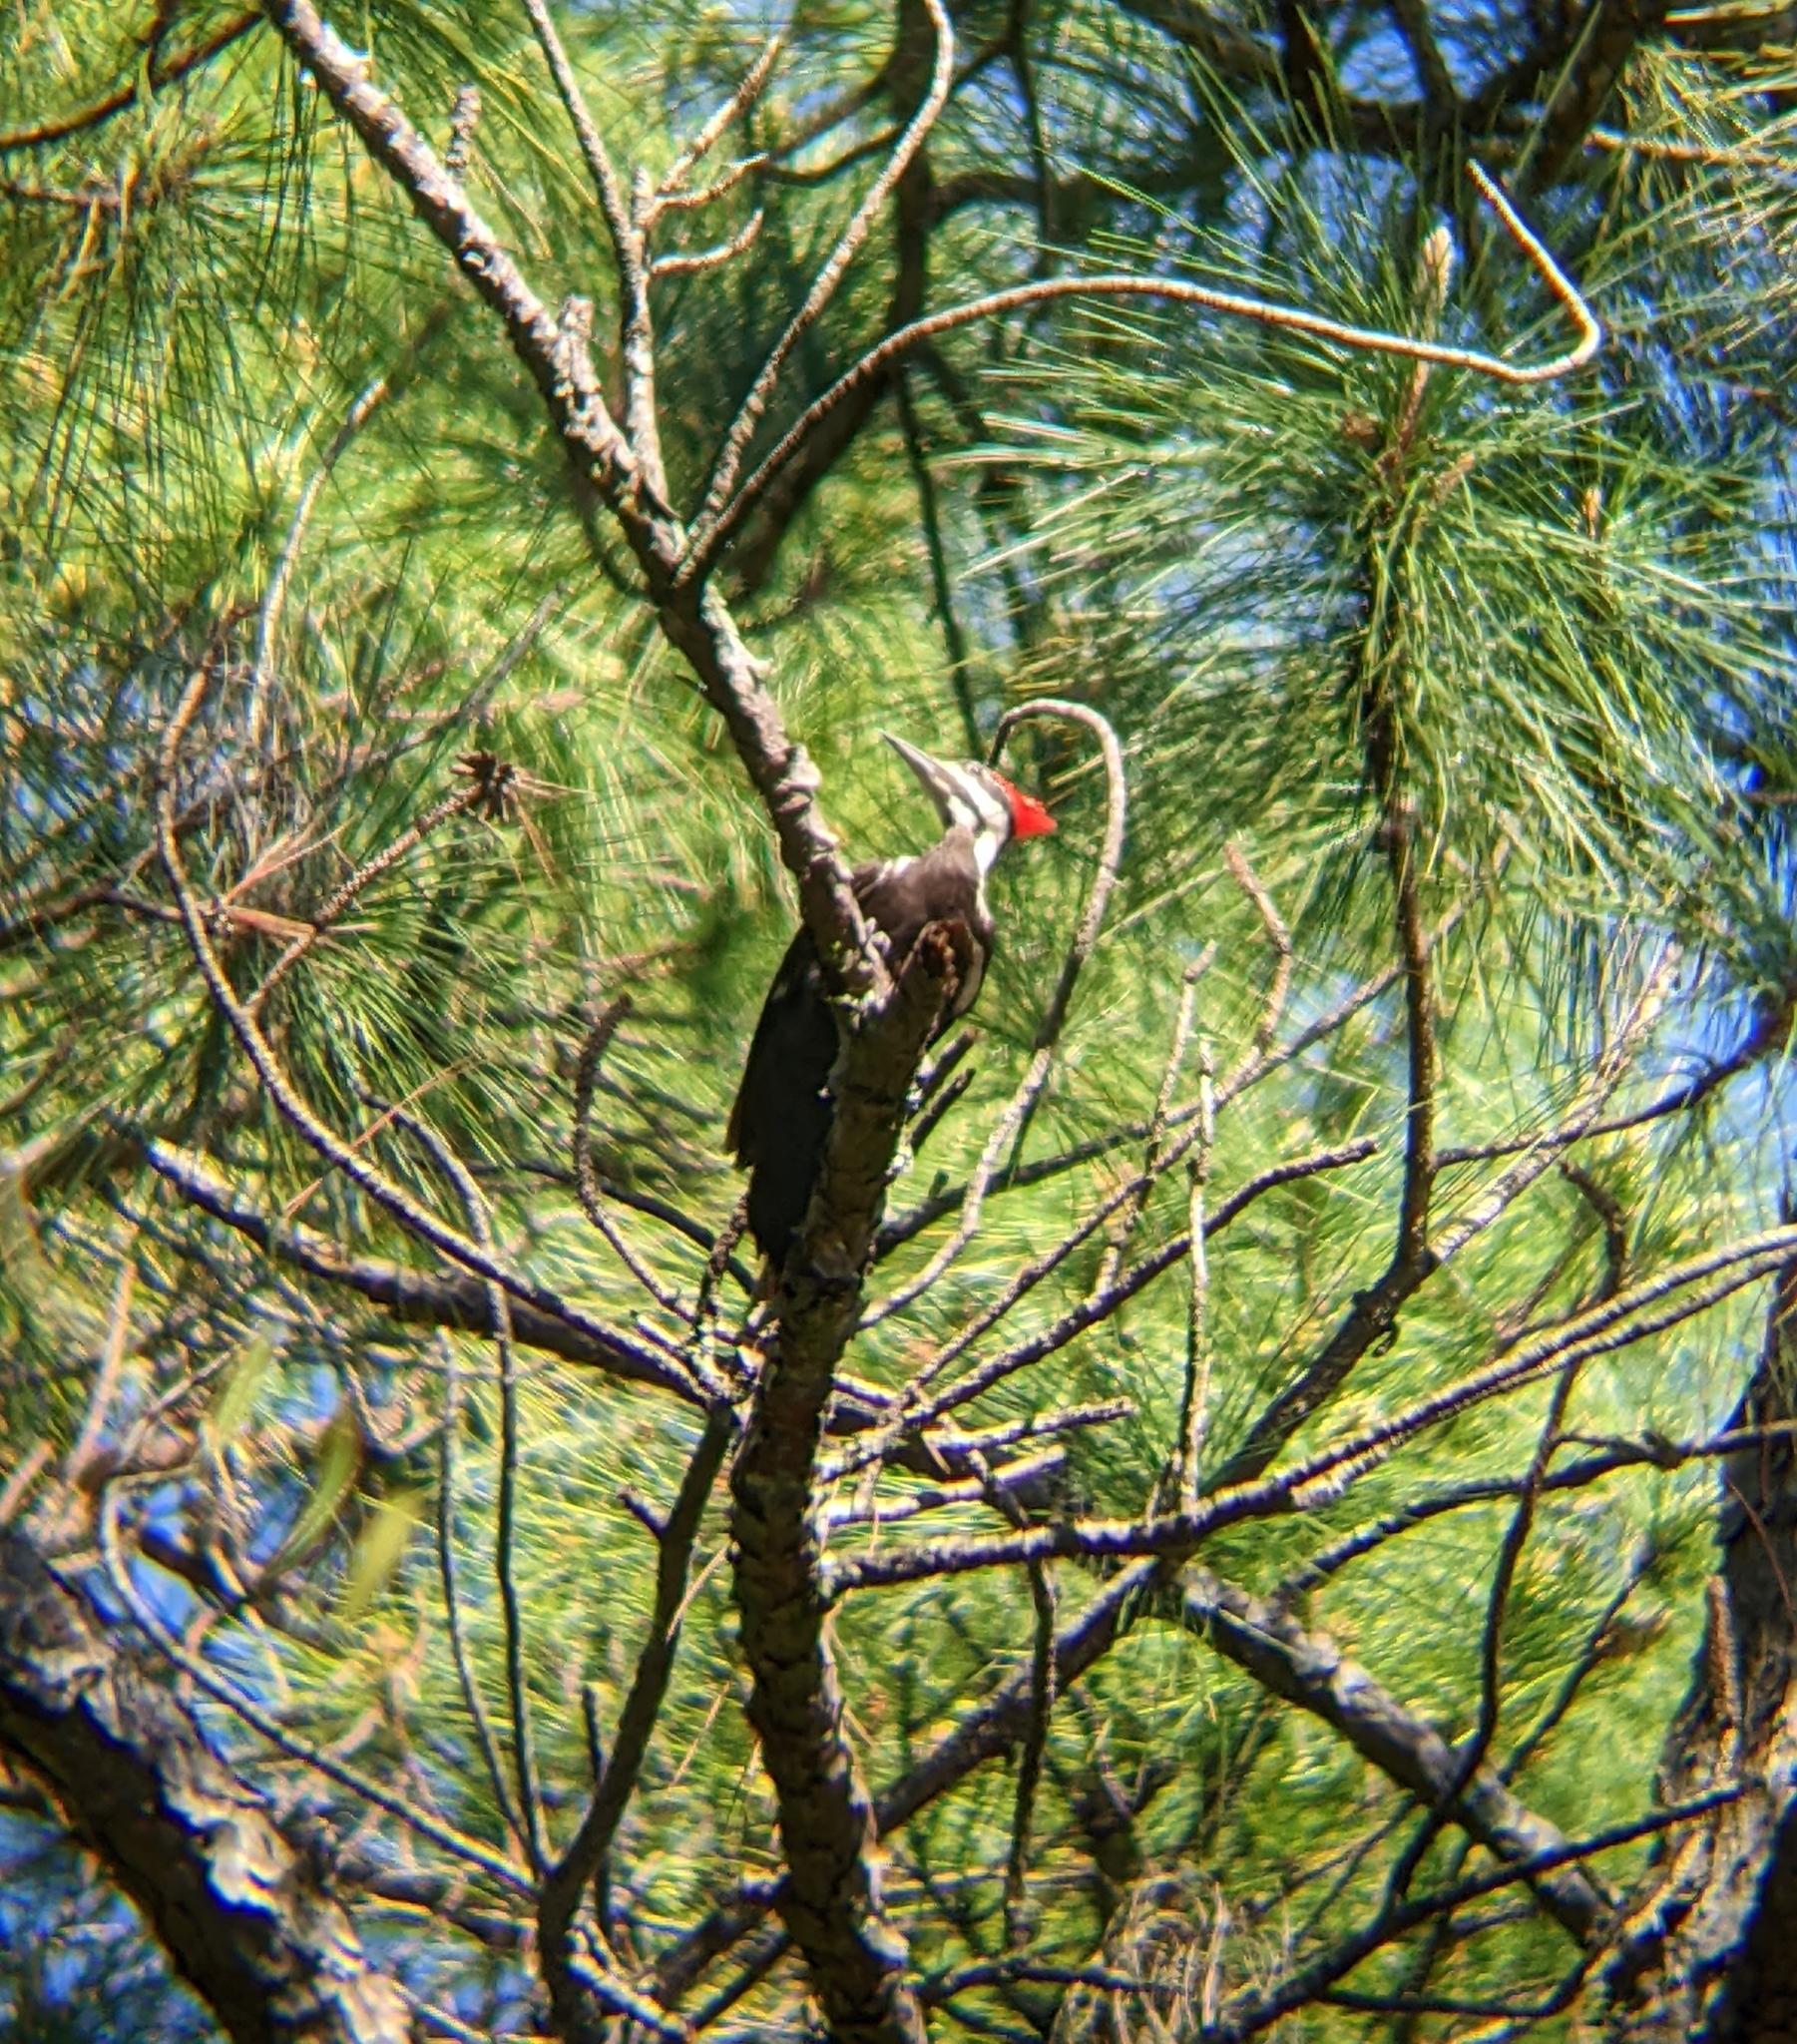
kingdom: Animalia
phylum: Chordata
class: Aves
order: Piciformes
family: Picidae
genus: Dryocopus
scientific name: Dryocopus pileatus
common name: Pileated woodpecker
